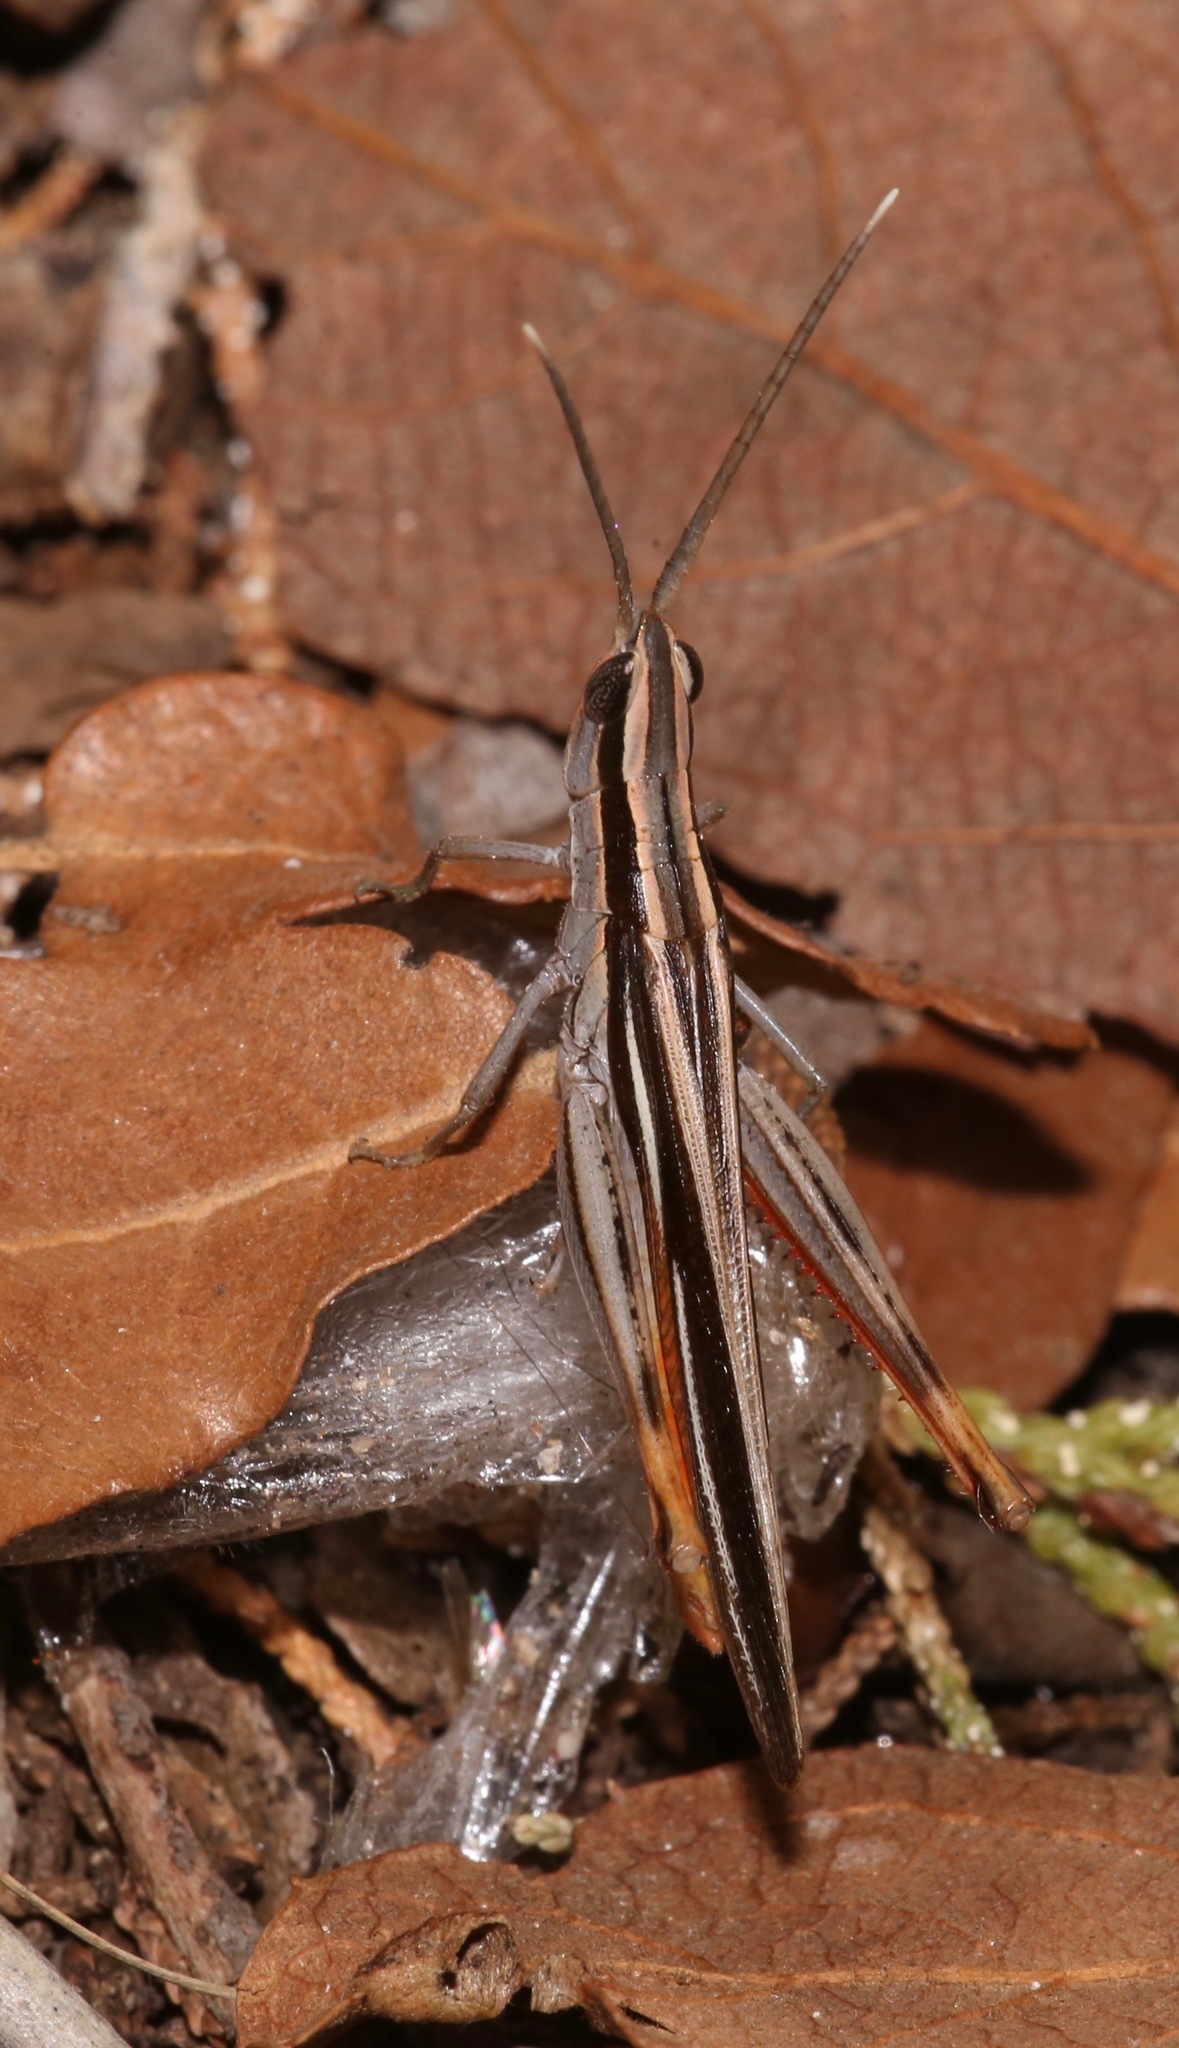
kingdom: Animalia
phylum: Arthropoda
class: Insecta
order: Orthoptera
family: Acrididae
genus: Mermiria
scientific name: Mermiria texana
